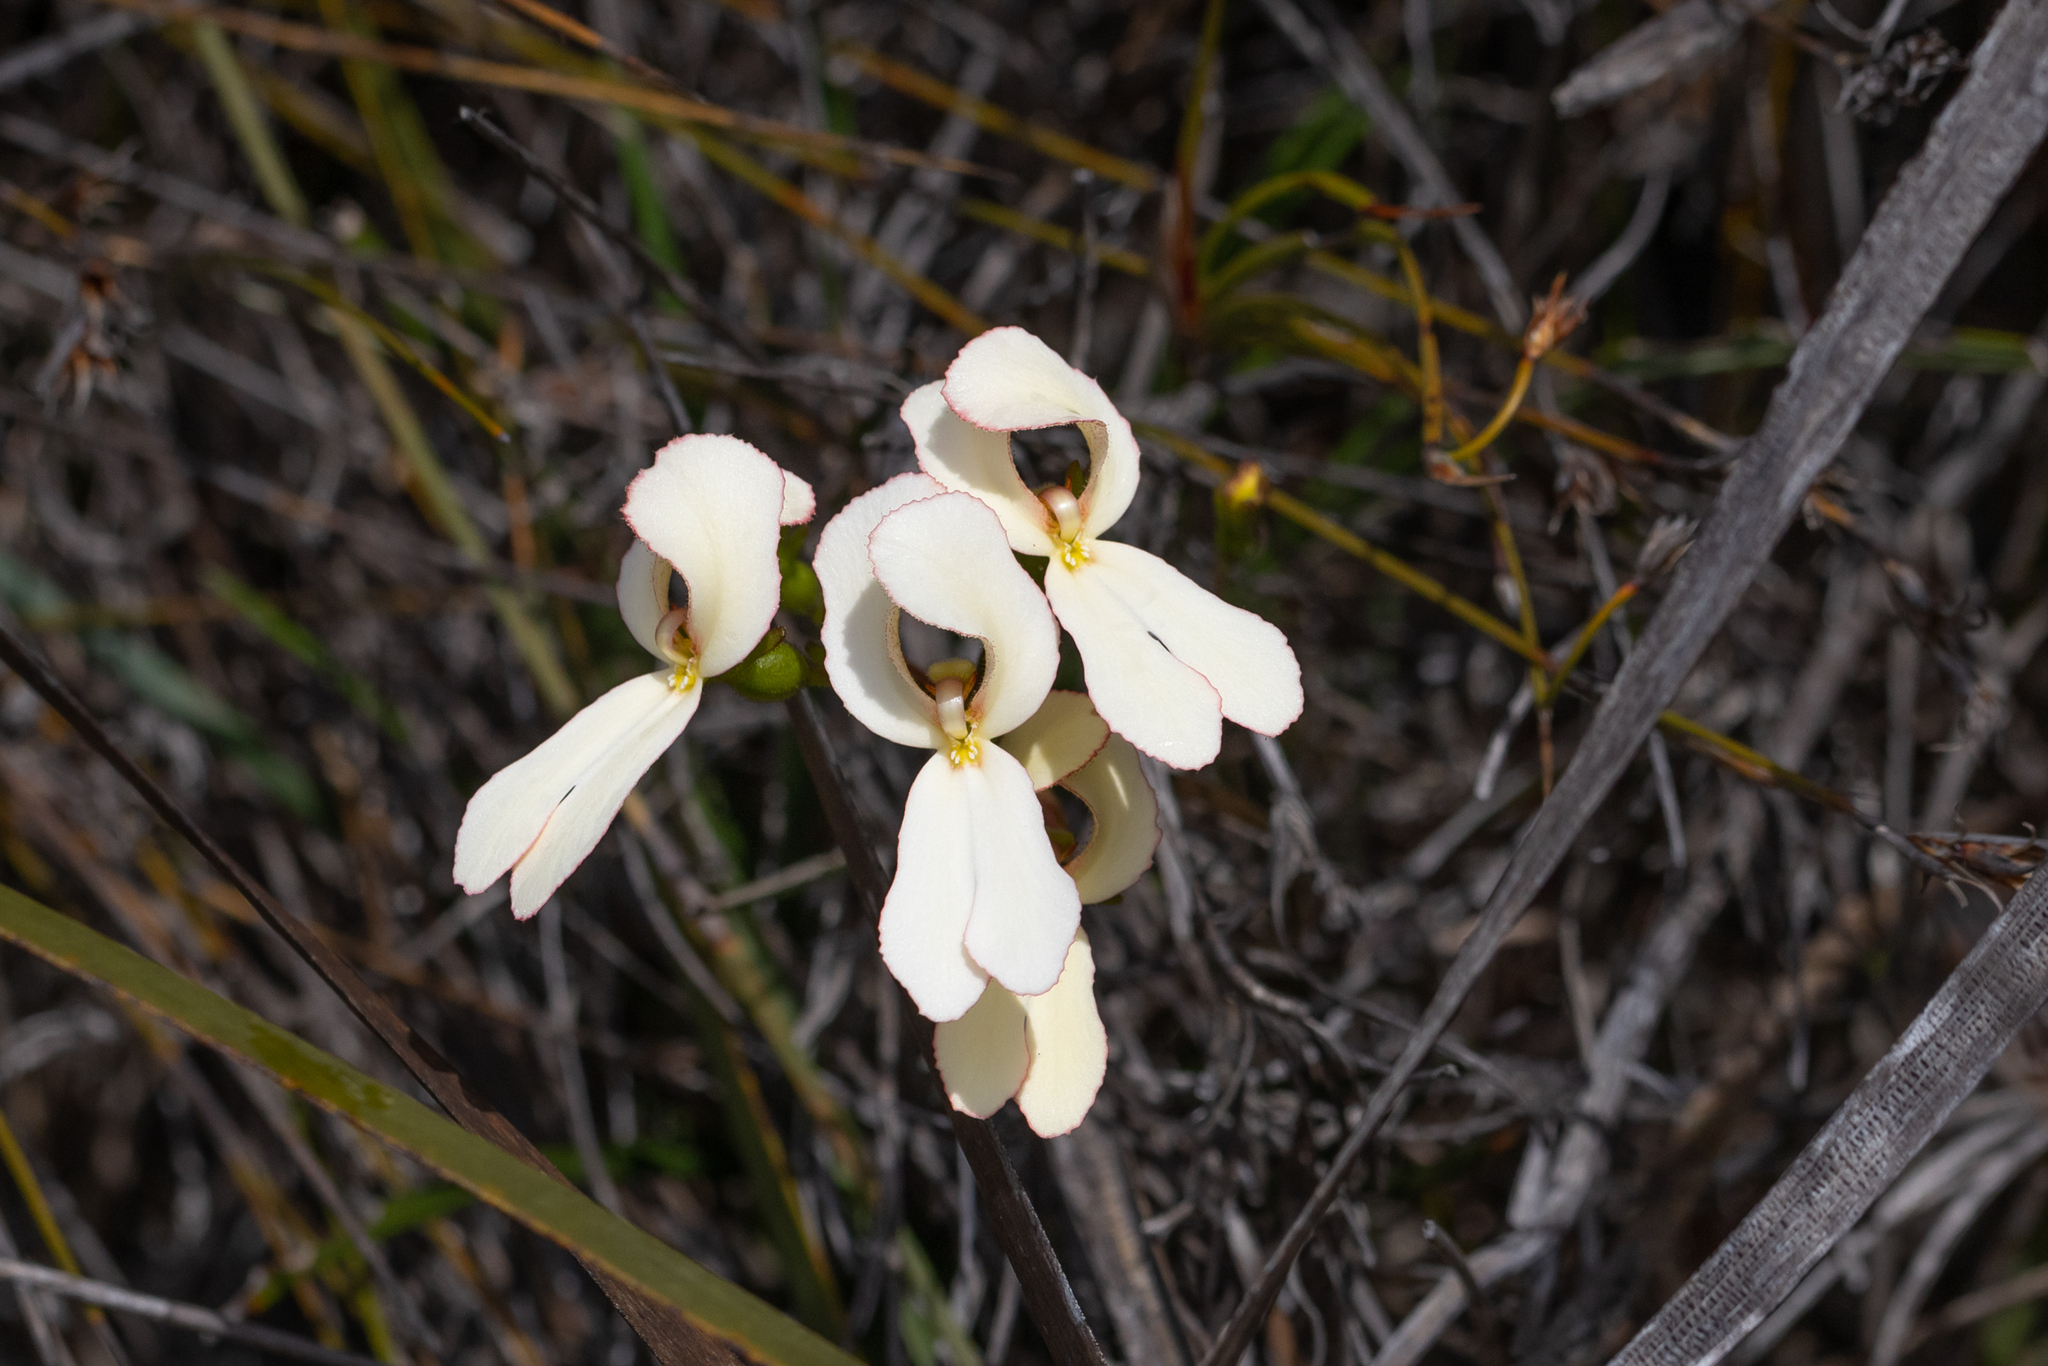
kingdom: Plantae
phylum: Tracheophyta
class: Magnoliopsida
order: Asterales
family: Stylidiaceae
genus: Stylidium
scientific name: Stylidium schoenoides
